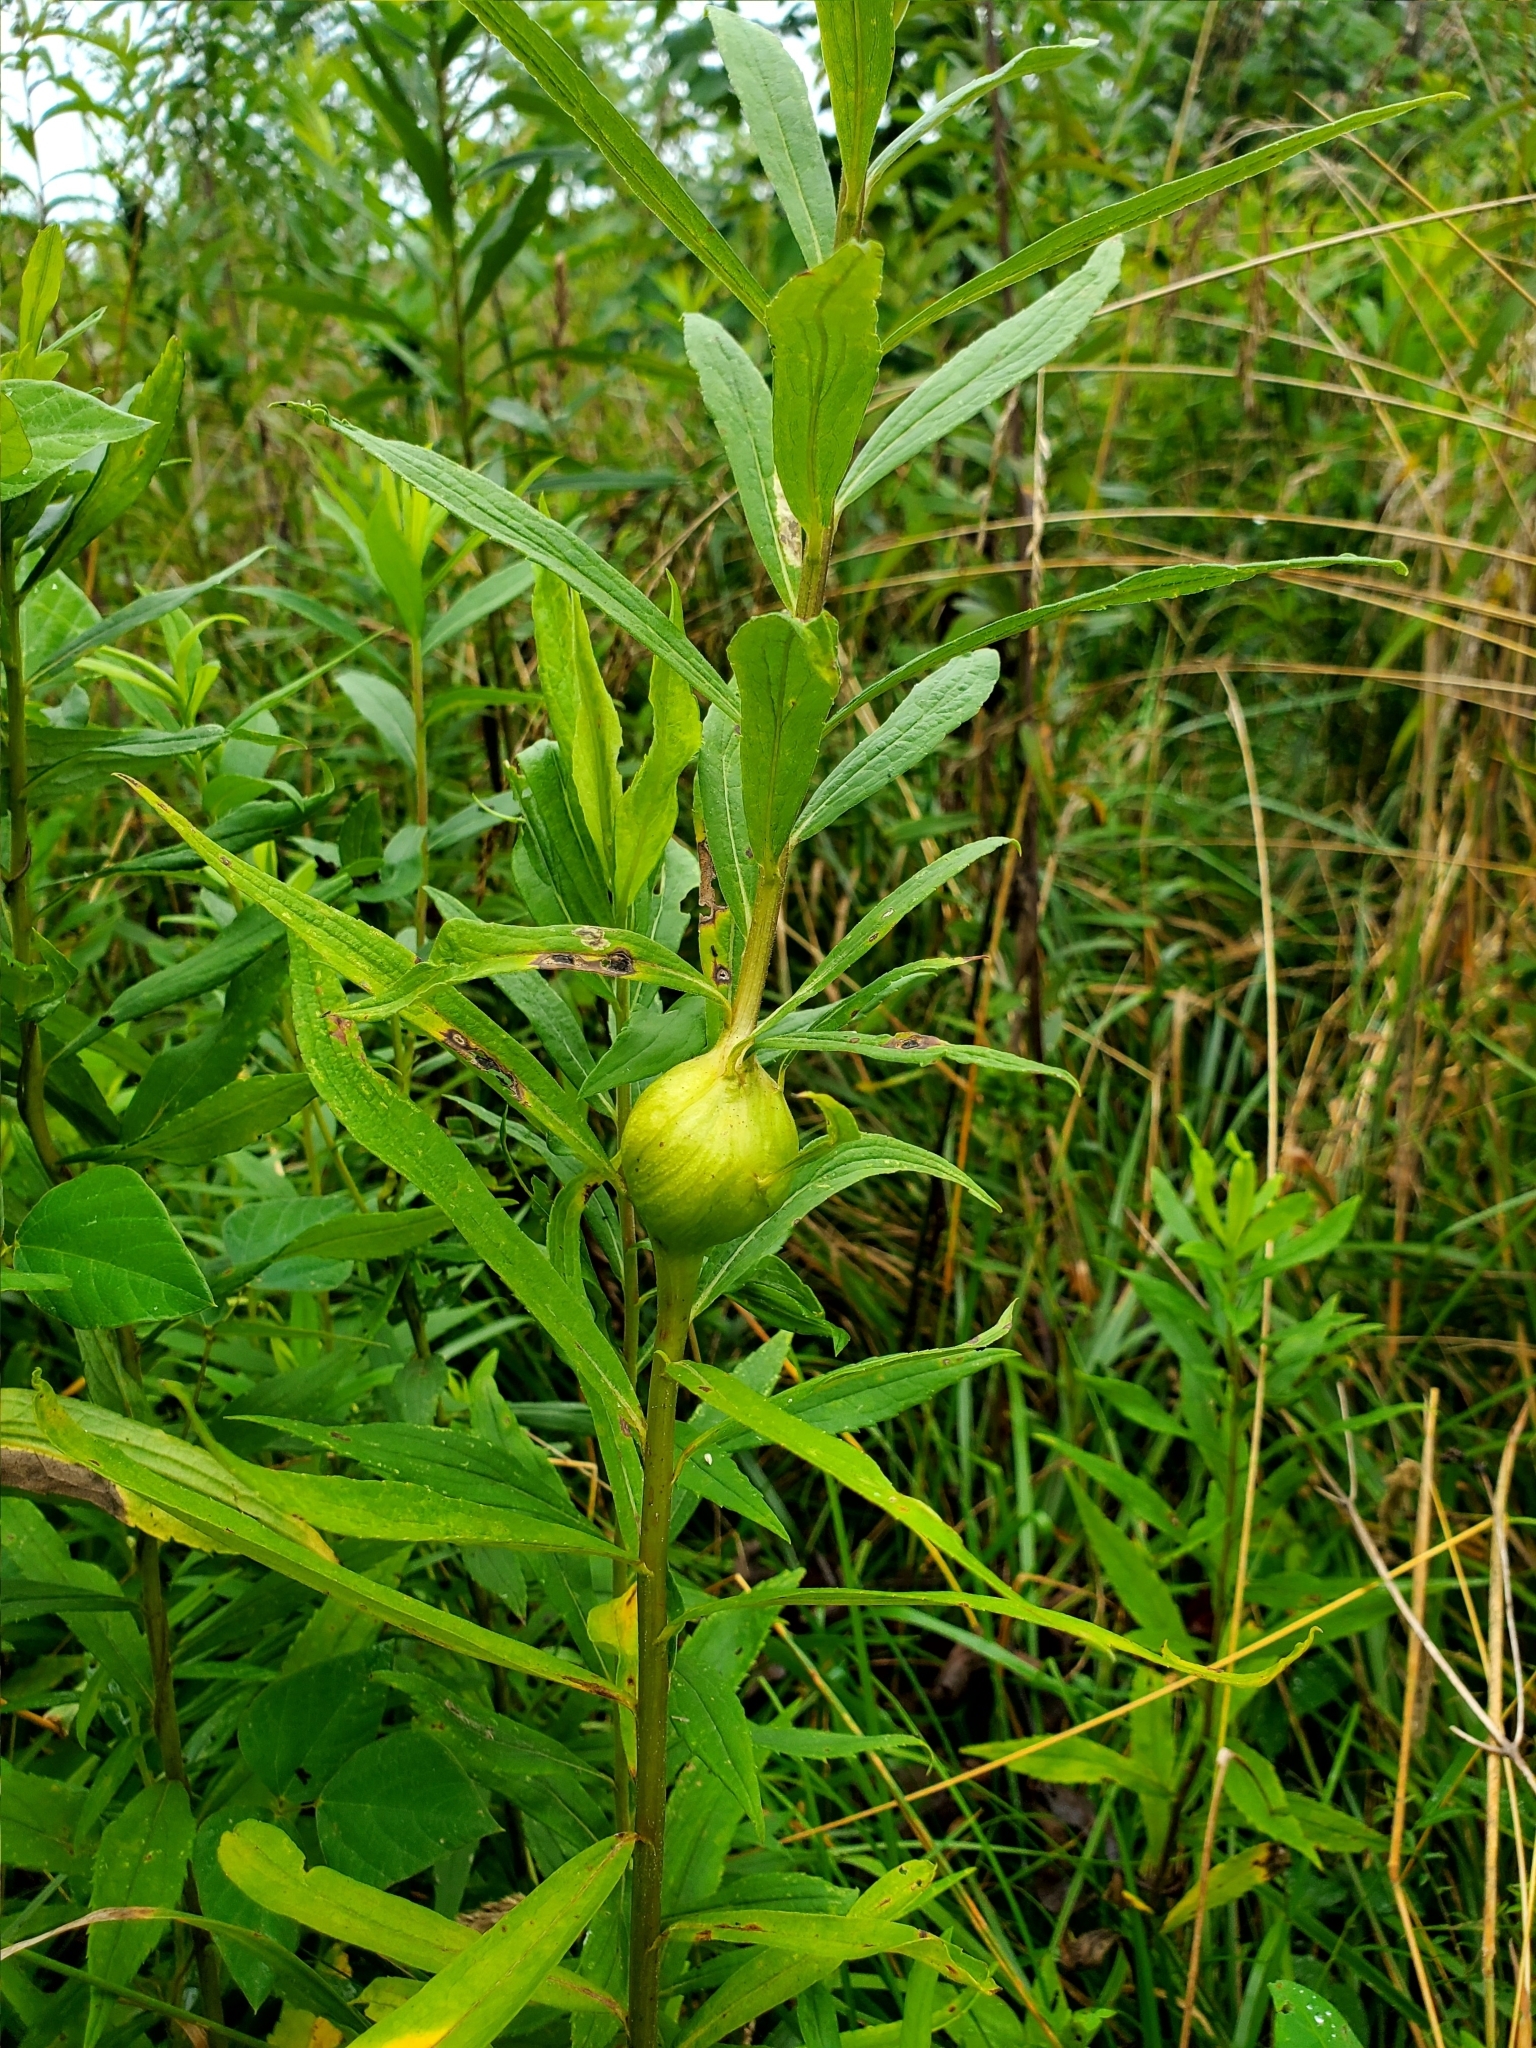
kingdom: Animalia
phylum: Arthropoda
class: Insecta
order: Diptera
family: Tephritidae
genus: Eurosta
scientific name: Eurosta solidaginis
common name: Goldenrod gall fly
